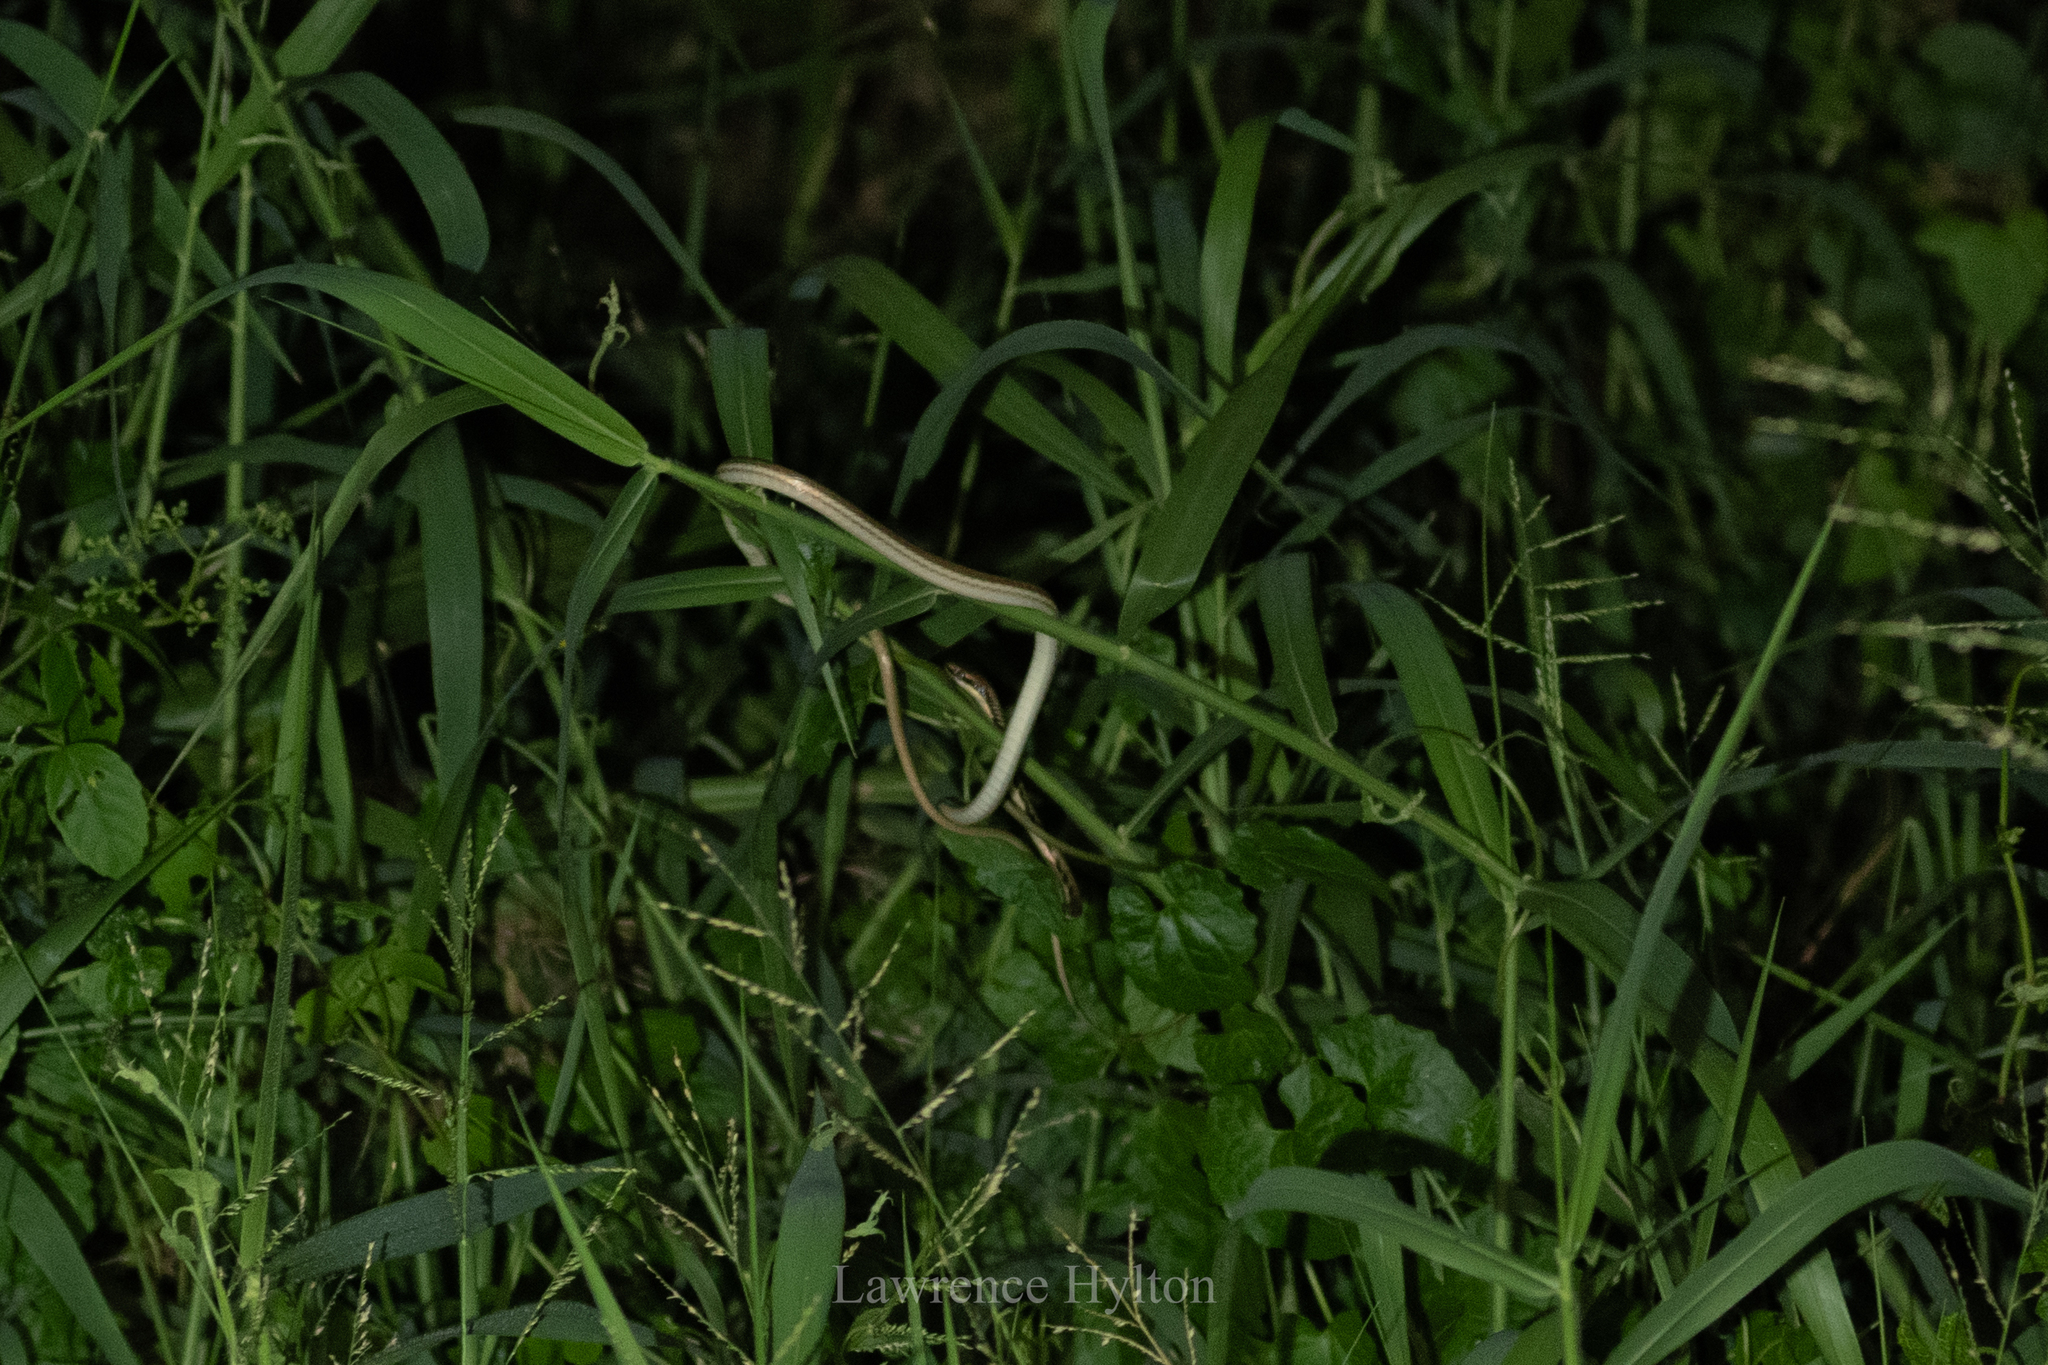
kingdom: Animalia
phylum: Chordata
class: Squamata
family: Colubridae
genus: Dendrelaphis
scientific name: Dendrelaphis pictus
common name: Indonesian bronze-back
